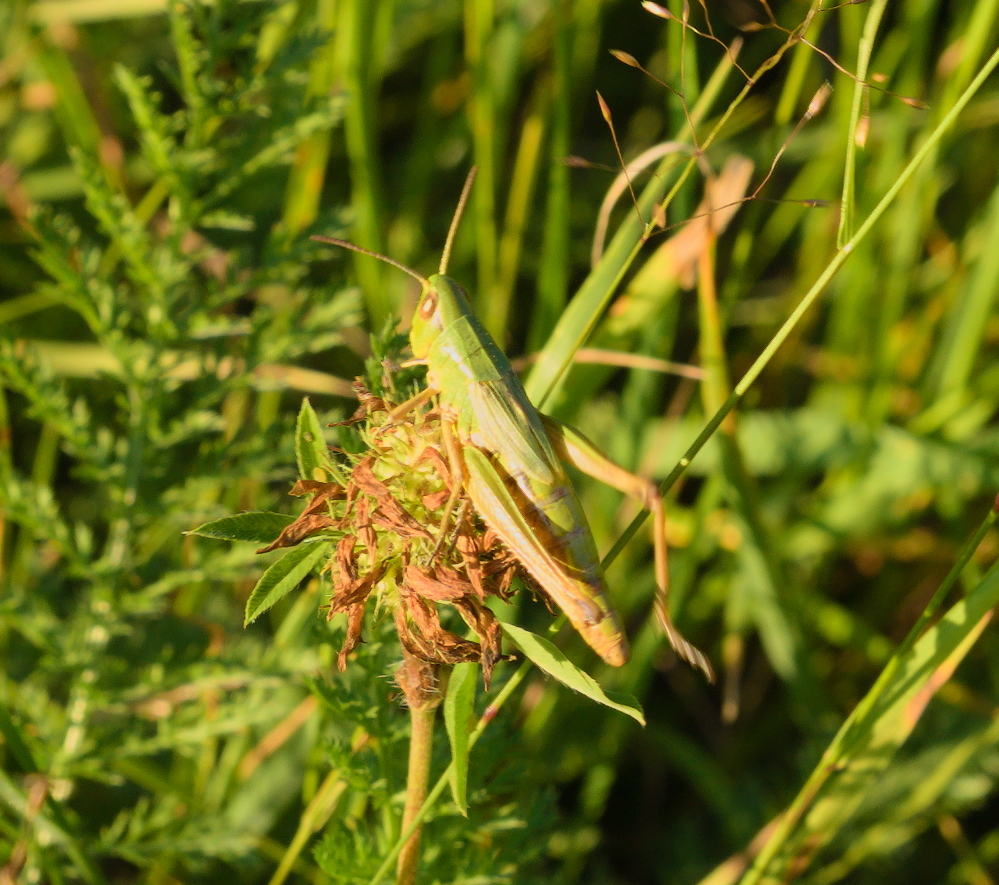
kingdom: Animalia
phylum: Arthropoda
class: Insecta
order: Orthoptera
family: Acrididae
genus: Pseudochorthippus
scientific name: Pseudochorthippus parallelus
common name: Meadow grasshopper
